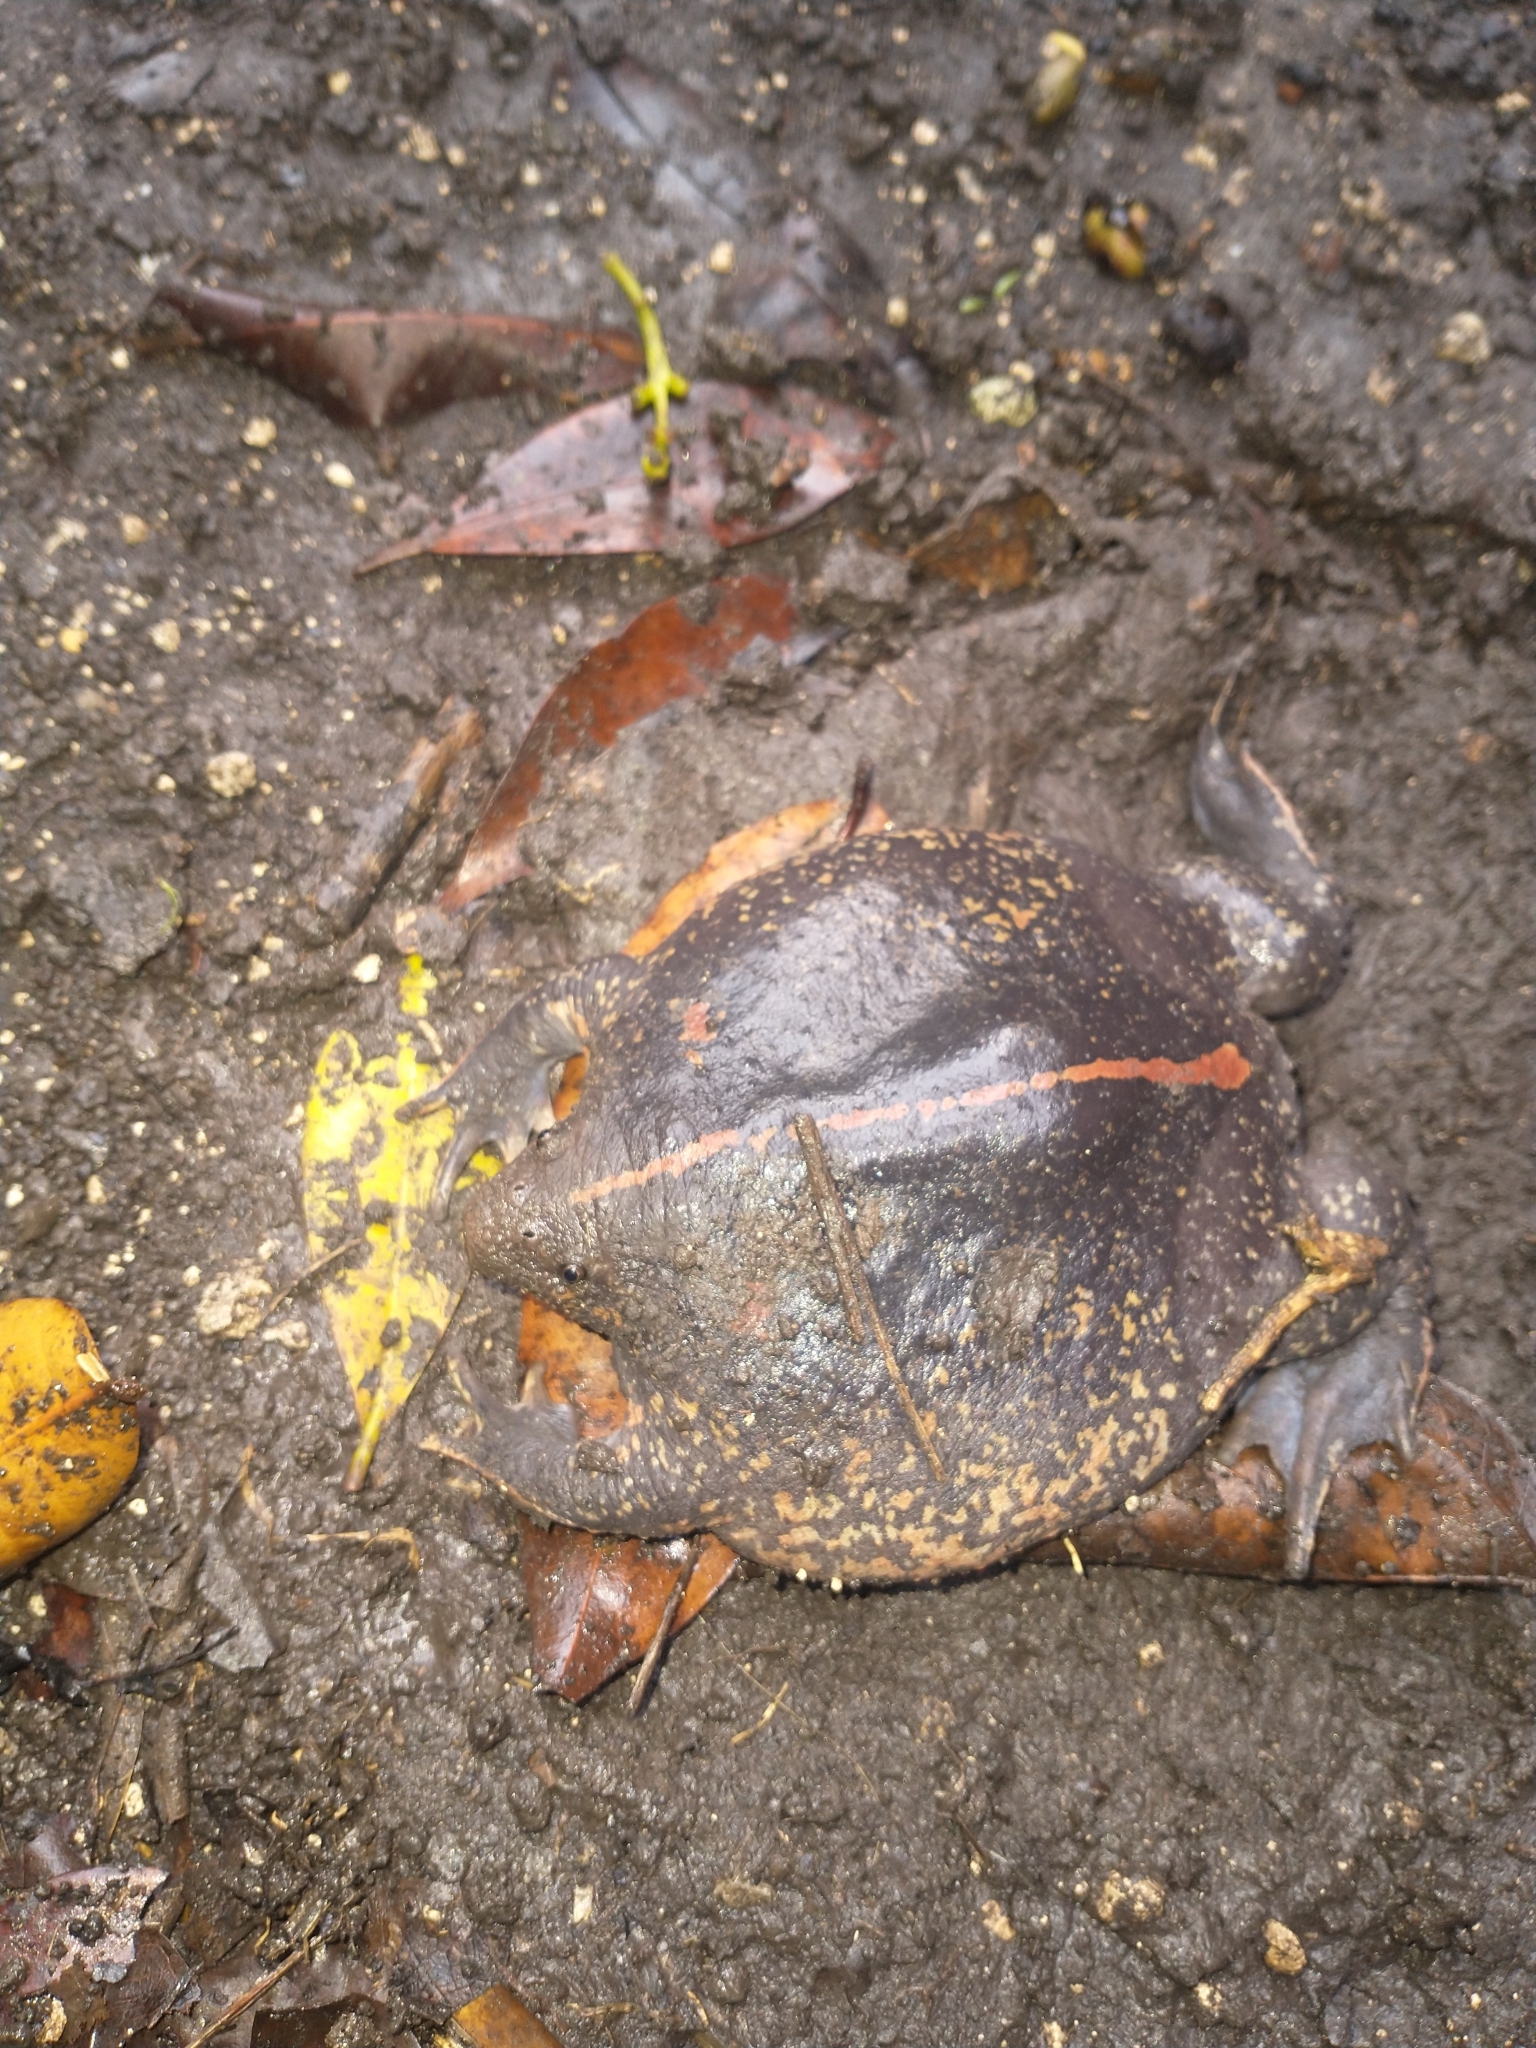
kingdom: Animalia
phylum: Chordata
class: Amphibia
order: Anura
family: Rhinophrynidae
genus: Rhinophrynus
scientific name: Rhinophrynus dorsalis
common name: Mexican burrowing toad
